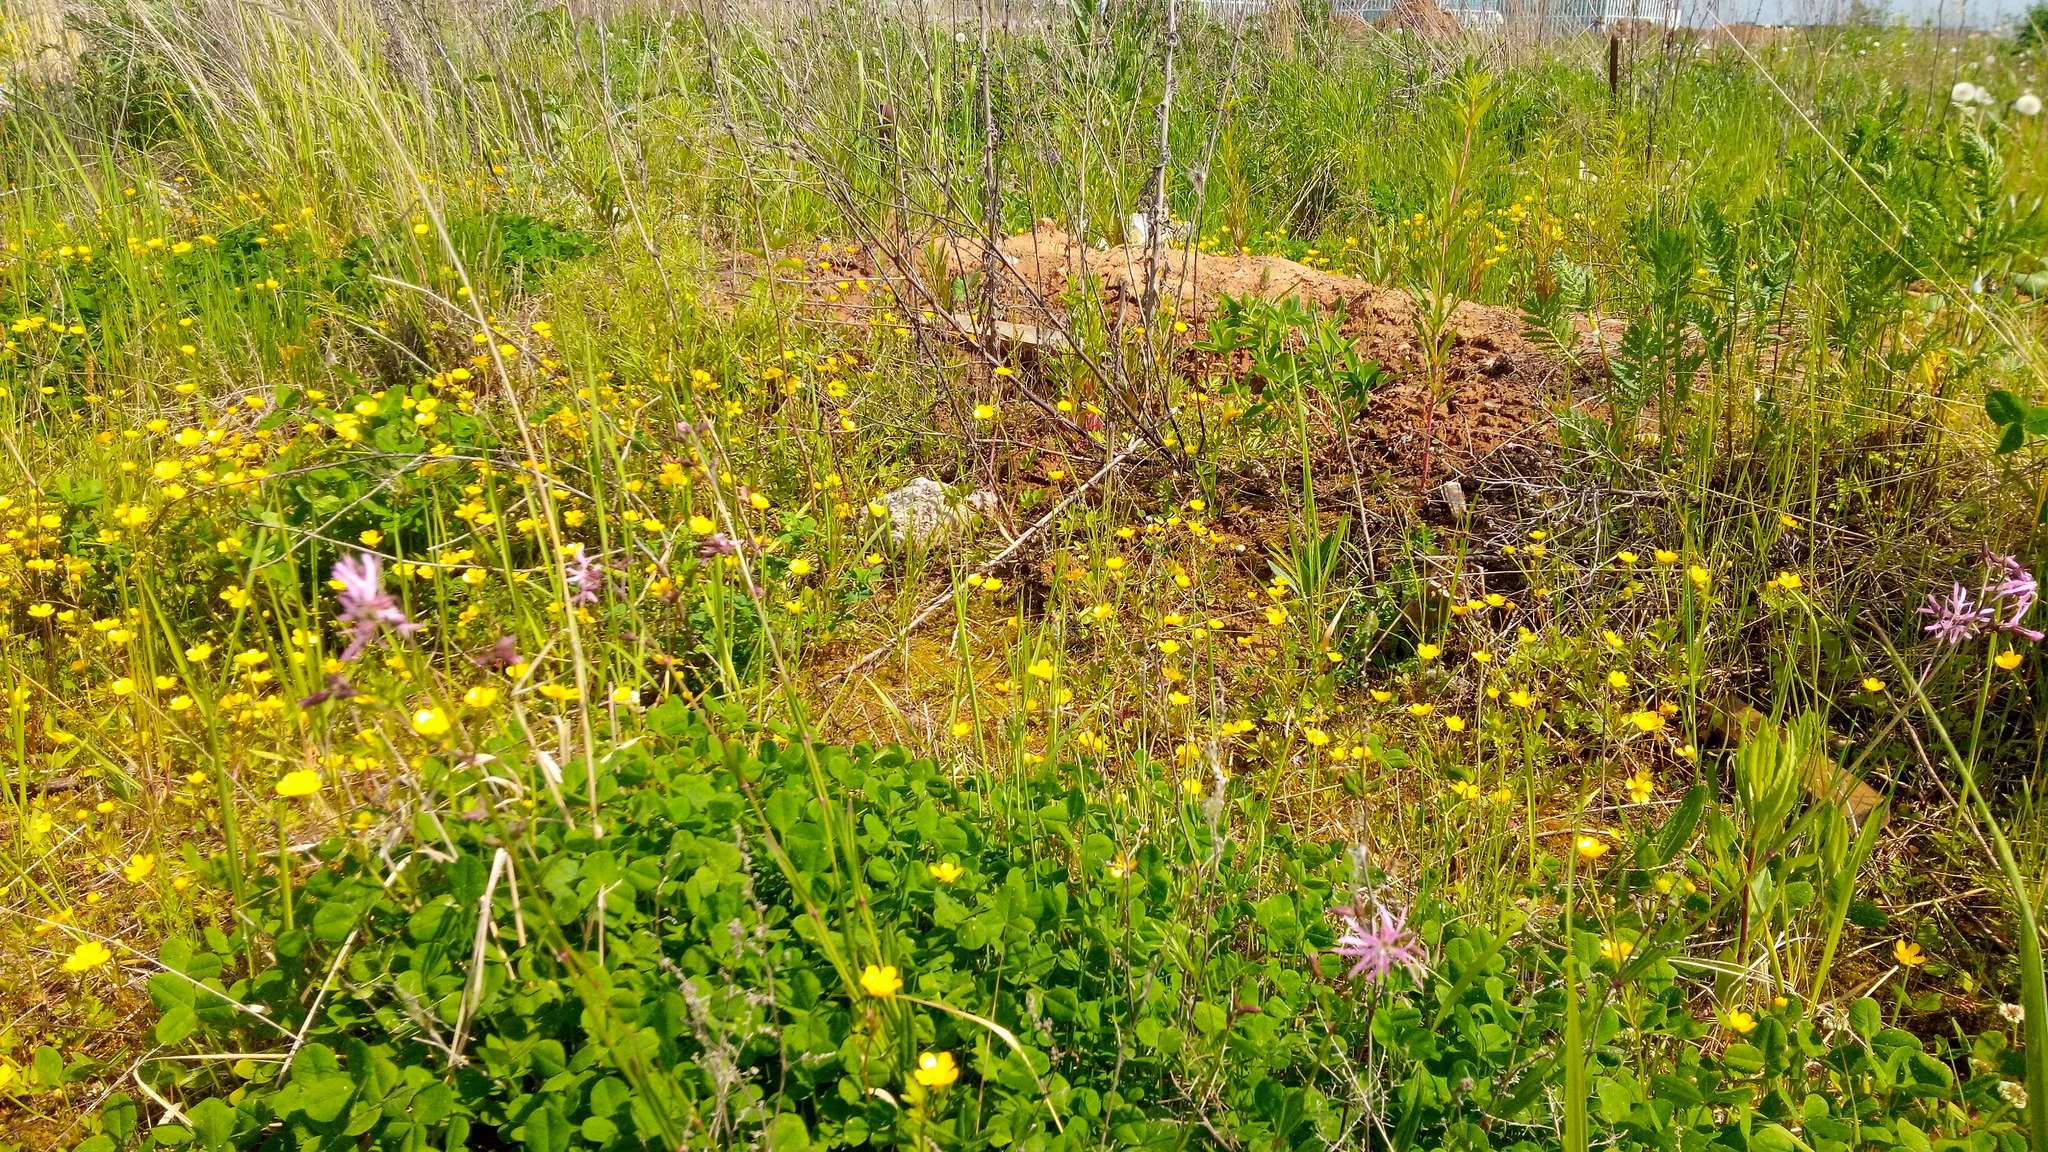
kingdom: Plantae
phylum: Tracheophyta
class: Magnoliopsida
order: Caryophyllales
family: Caryophyllaceae
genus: Silene
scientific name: Silene flos-cuculi
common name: Ragged-robin
